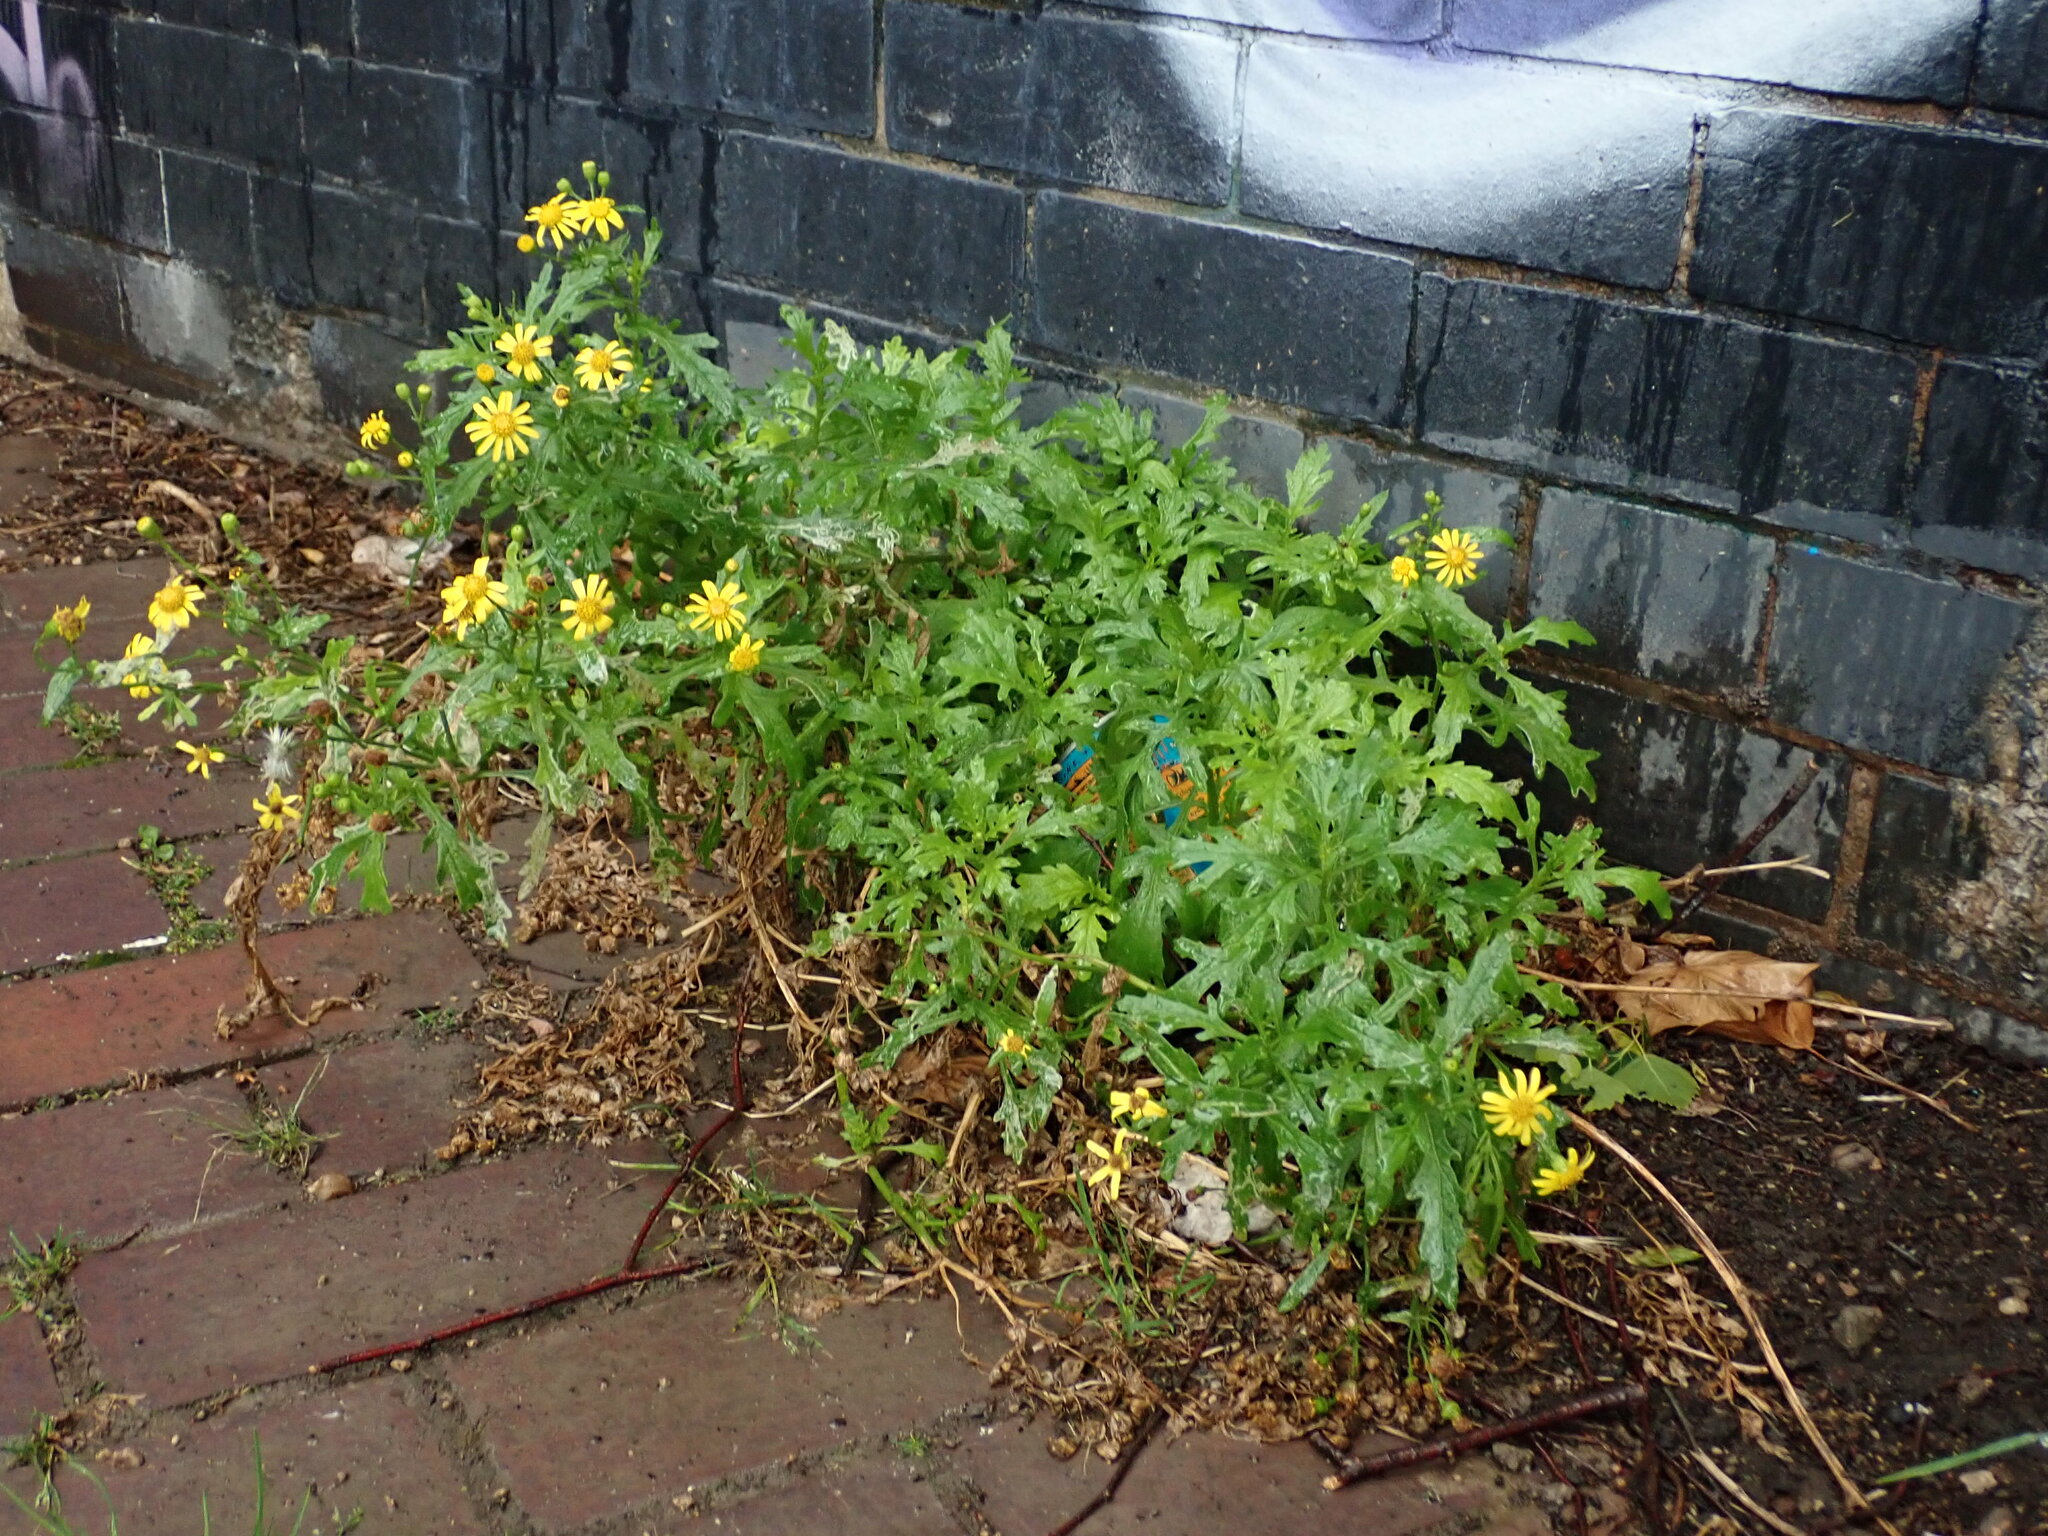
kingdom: Plantae
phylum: Tracheophyta
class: Magnoliopsida
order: Asterales
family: Asteraceae
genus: Senecio
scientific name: Senecio squalidus
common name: Oxford ragwort
